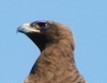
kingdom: Animalia
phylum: Chordata
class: Aves
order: Accipitriformes
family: Accipitridae
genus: Hieraaetus
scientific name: Hieraaetus wahlbergi
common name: Wahlberg's eagle
